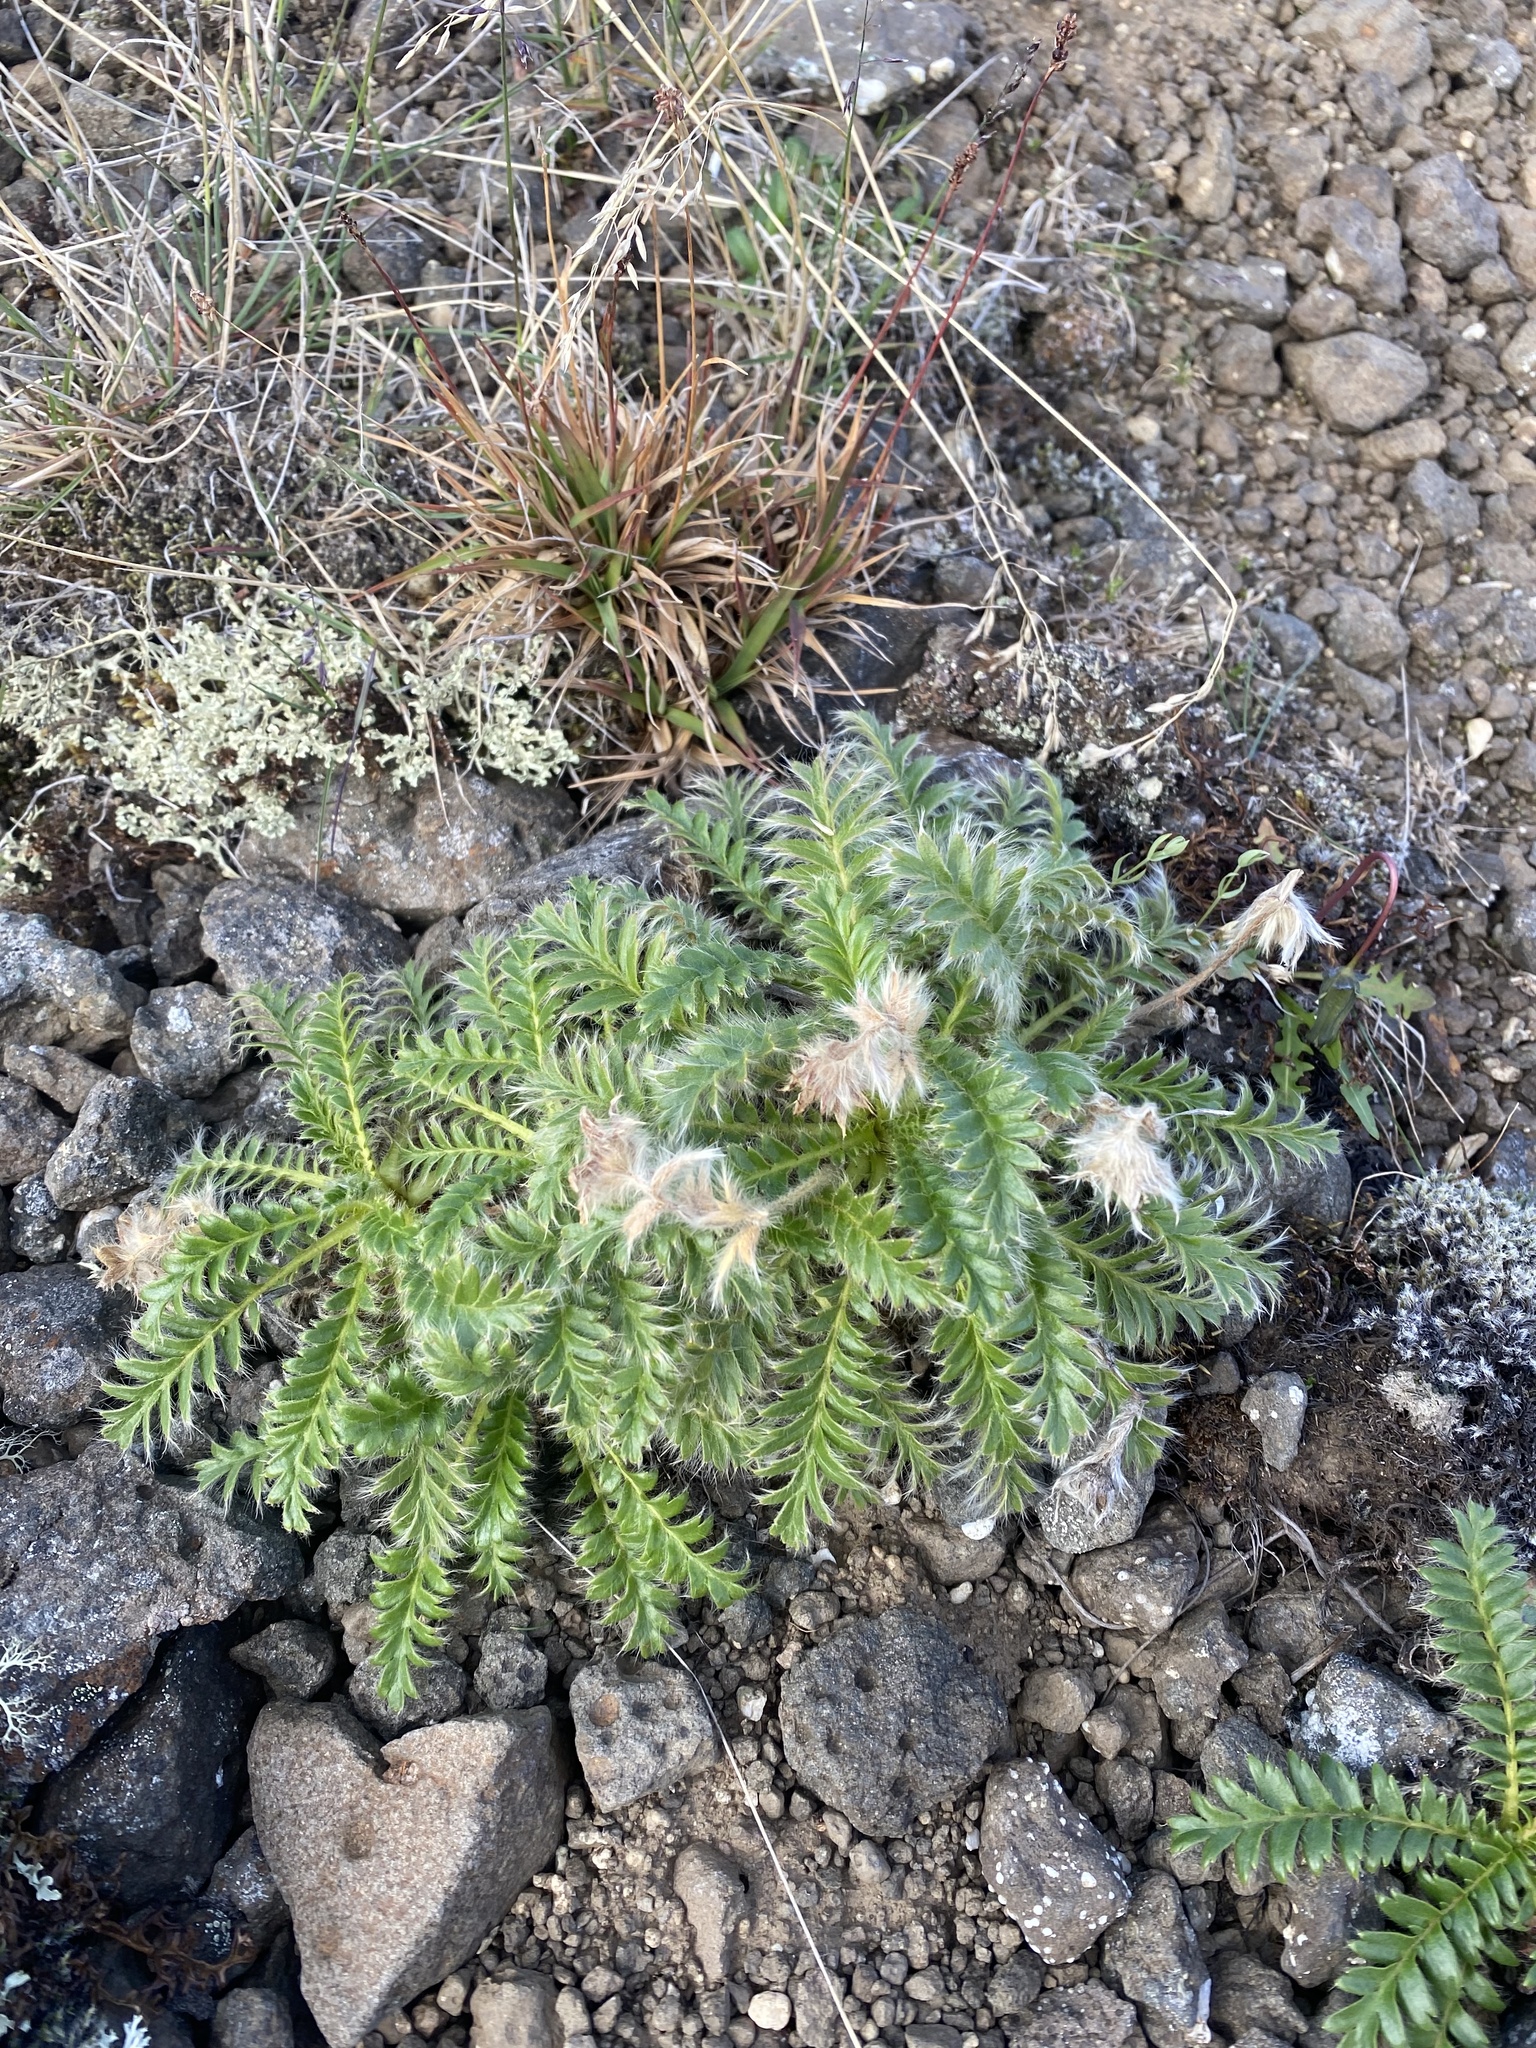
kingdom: Plantae
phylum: Tracheophyta
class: Magnoliopsida
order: Rosales
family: Rosaceae
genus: Geum
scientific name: Geum glaciale
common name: Glacier avens
